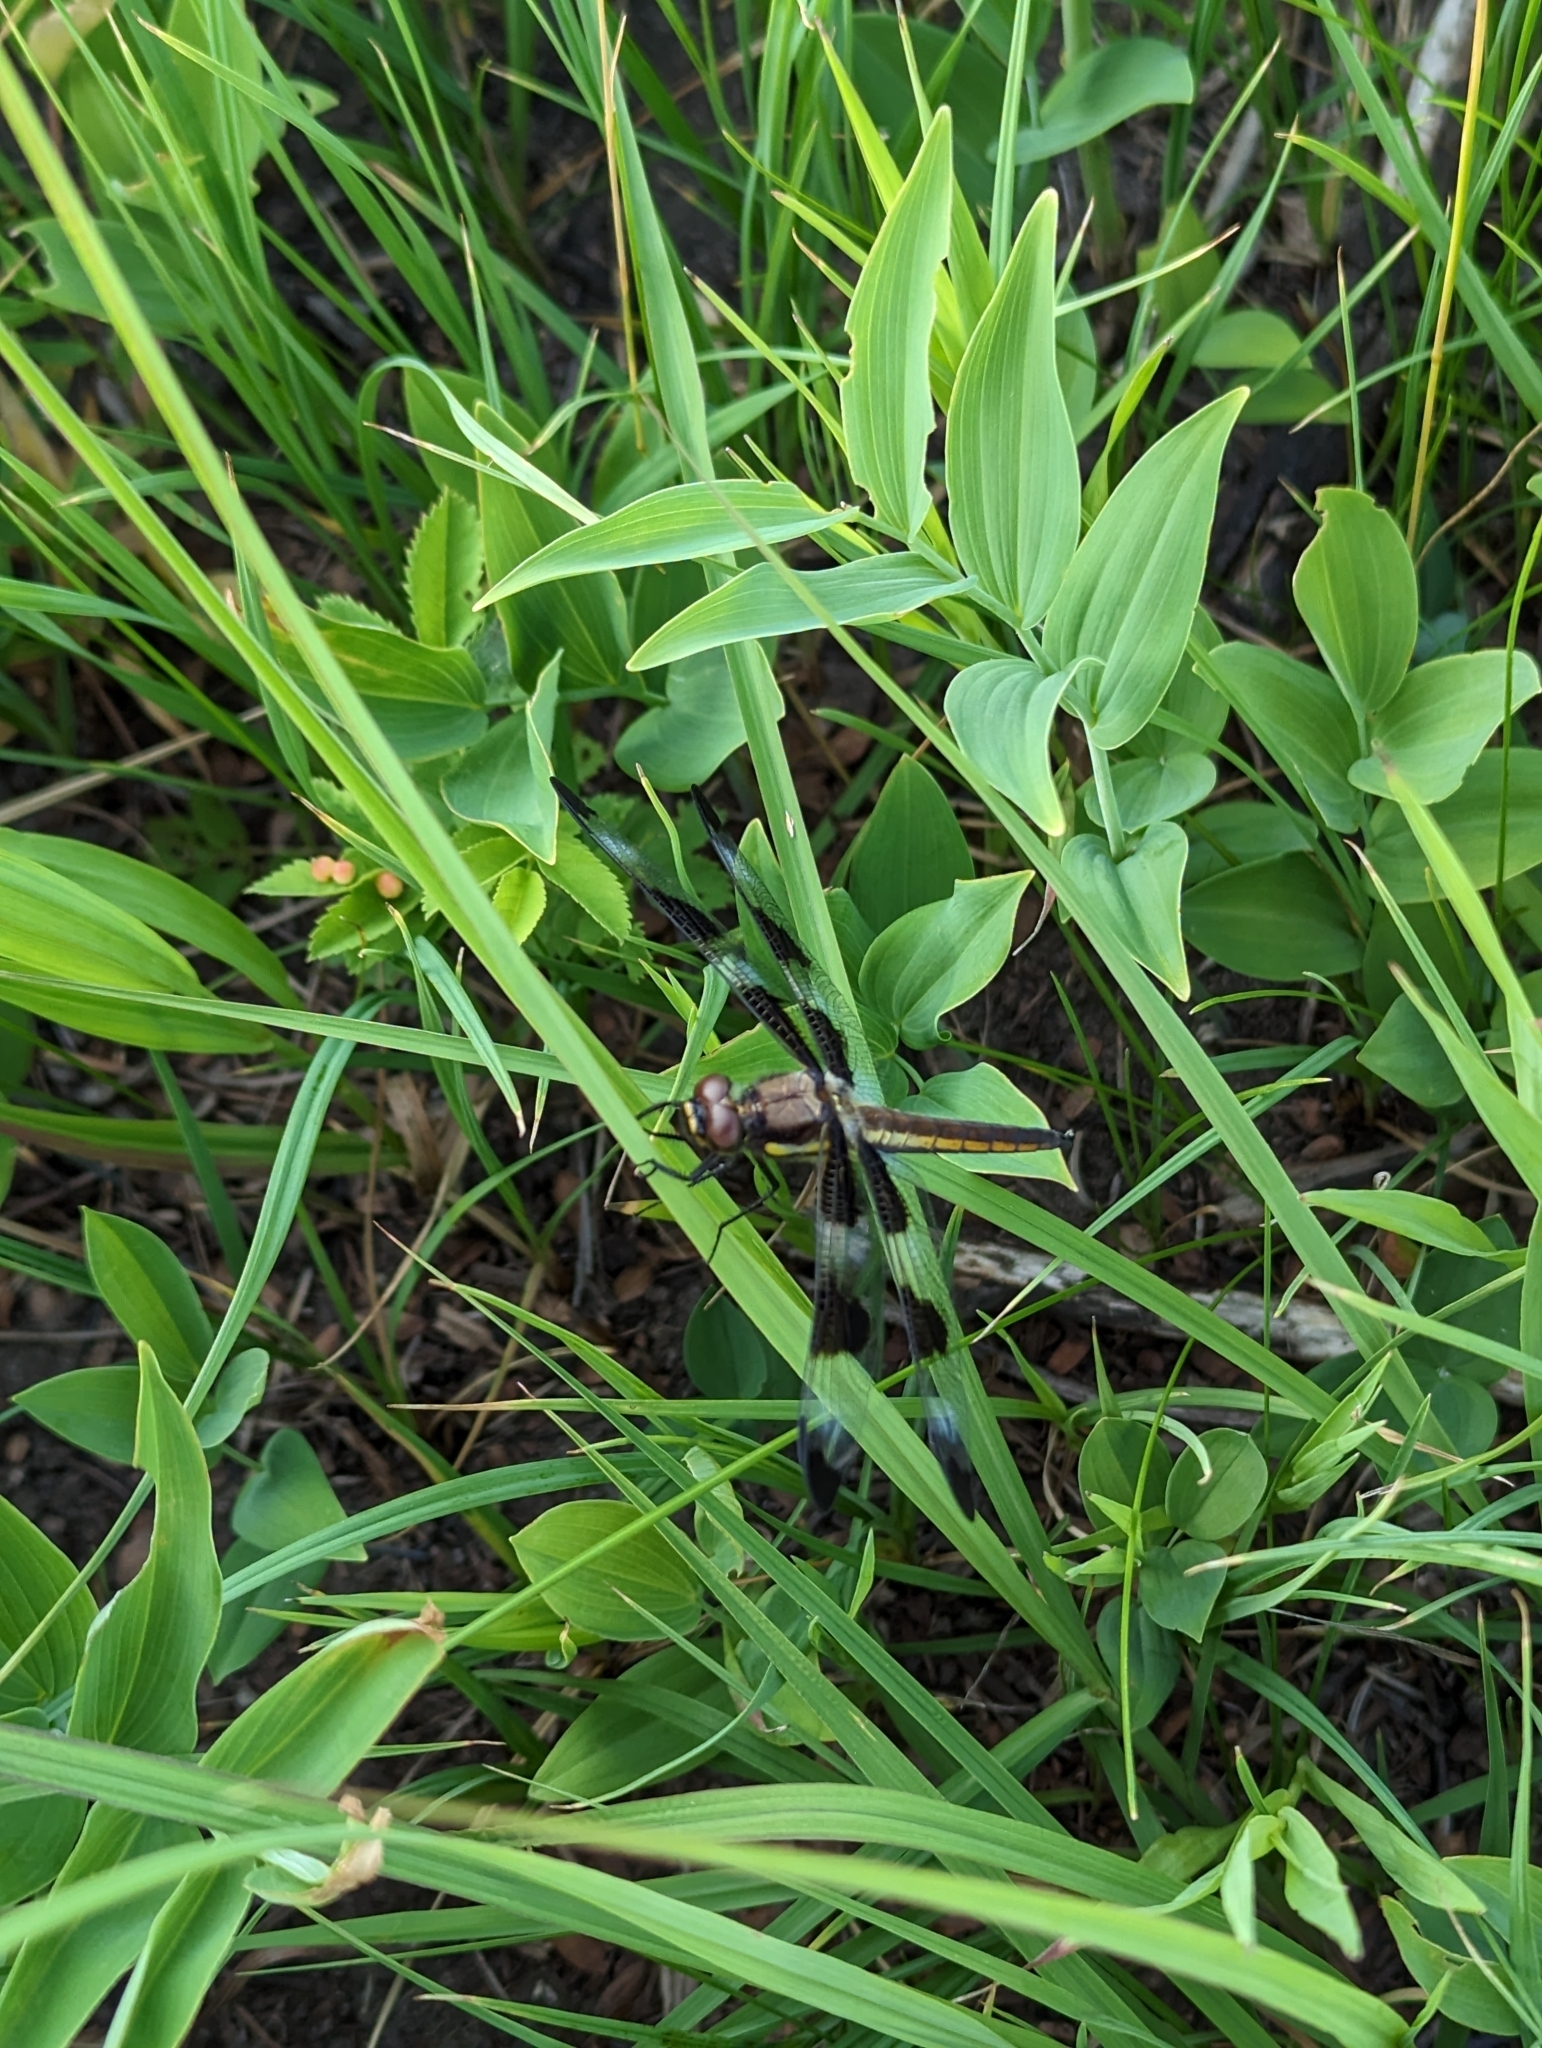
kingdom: Animalia
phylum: Arthropoda
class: Insecta
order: Odonata
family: Libellulidae
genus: Libellula
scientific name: Libellula pulchella
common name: Twelve-spotted skimmer
